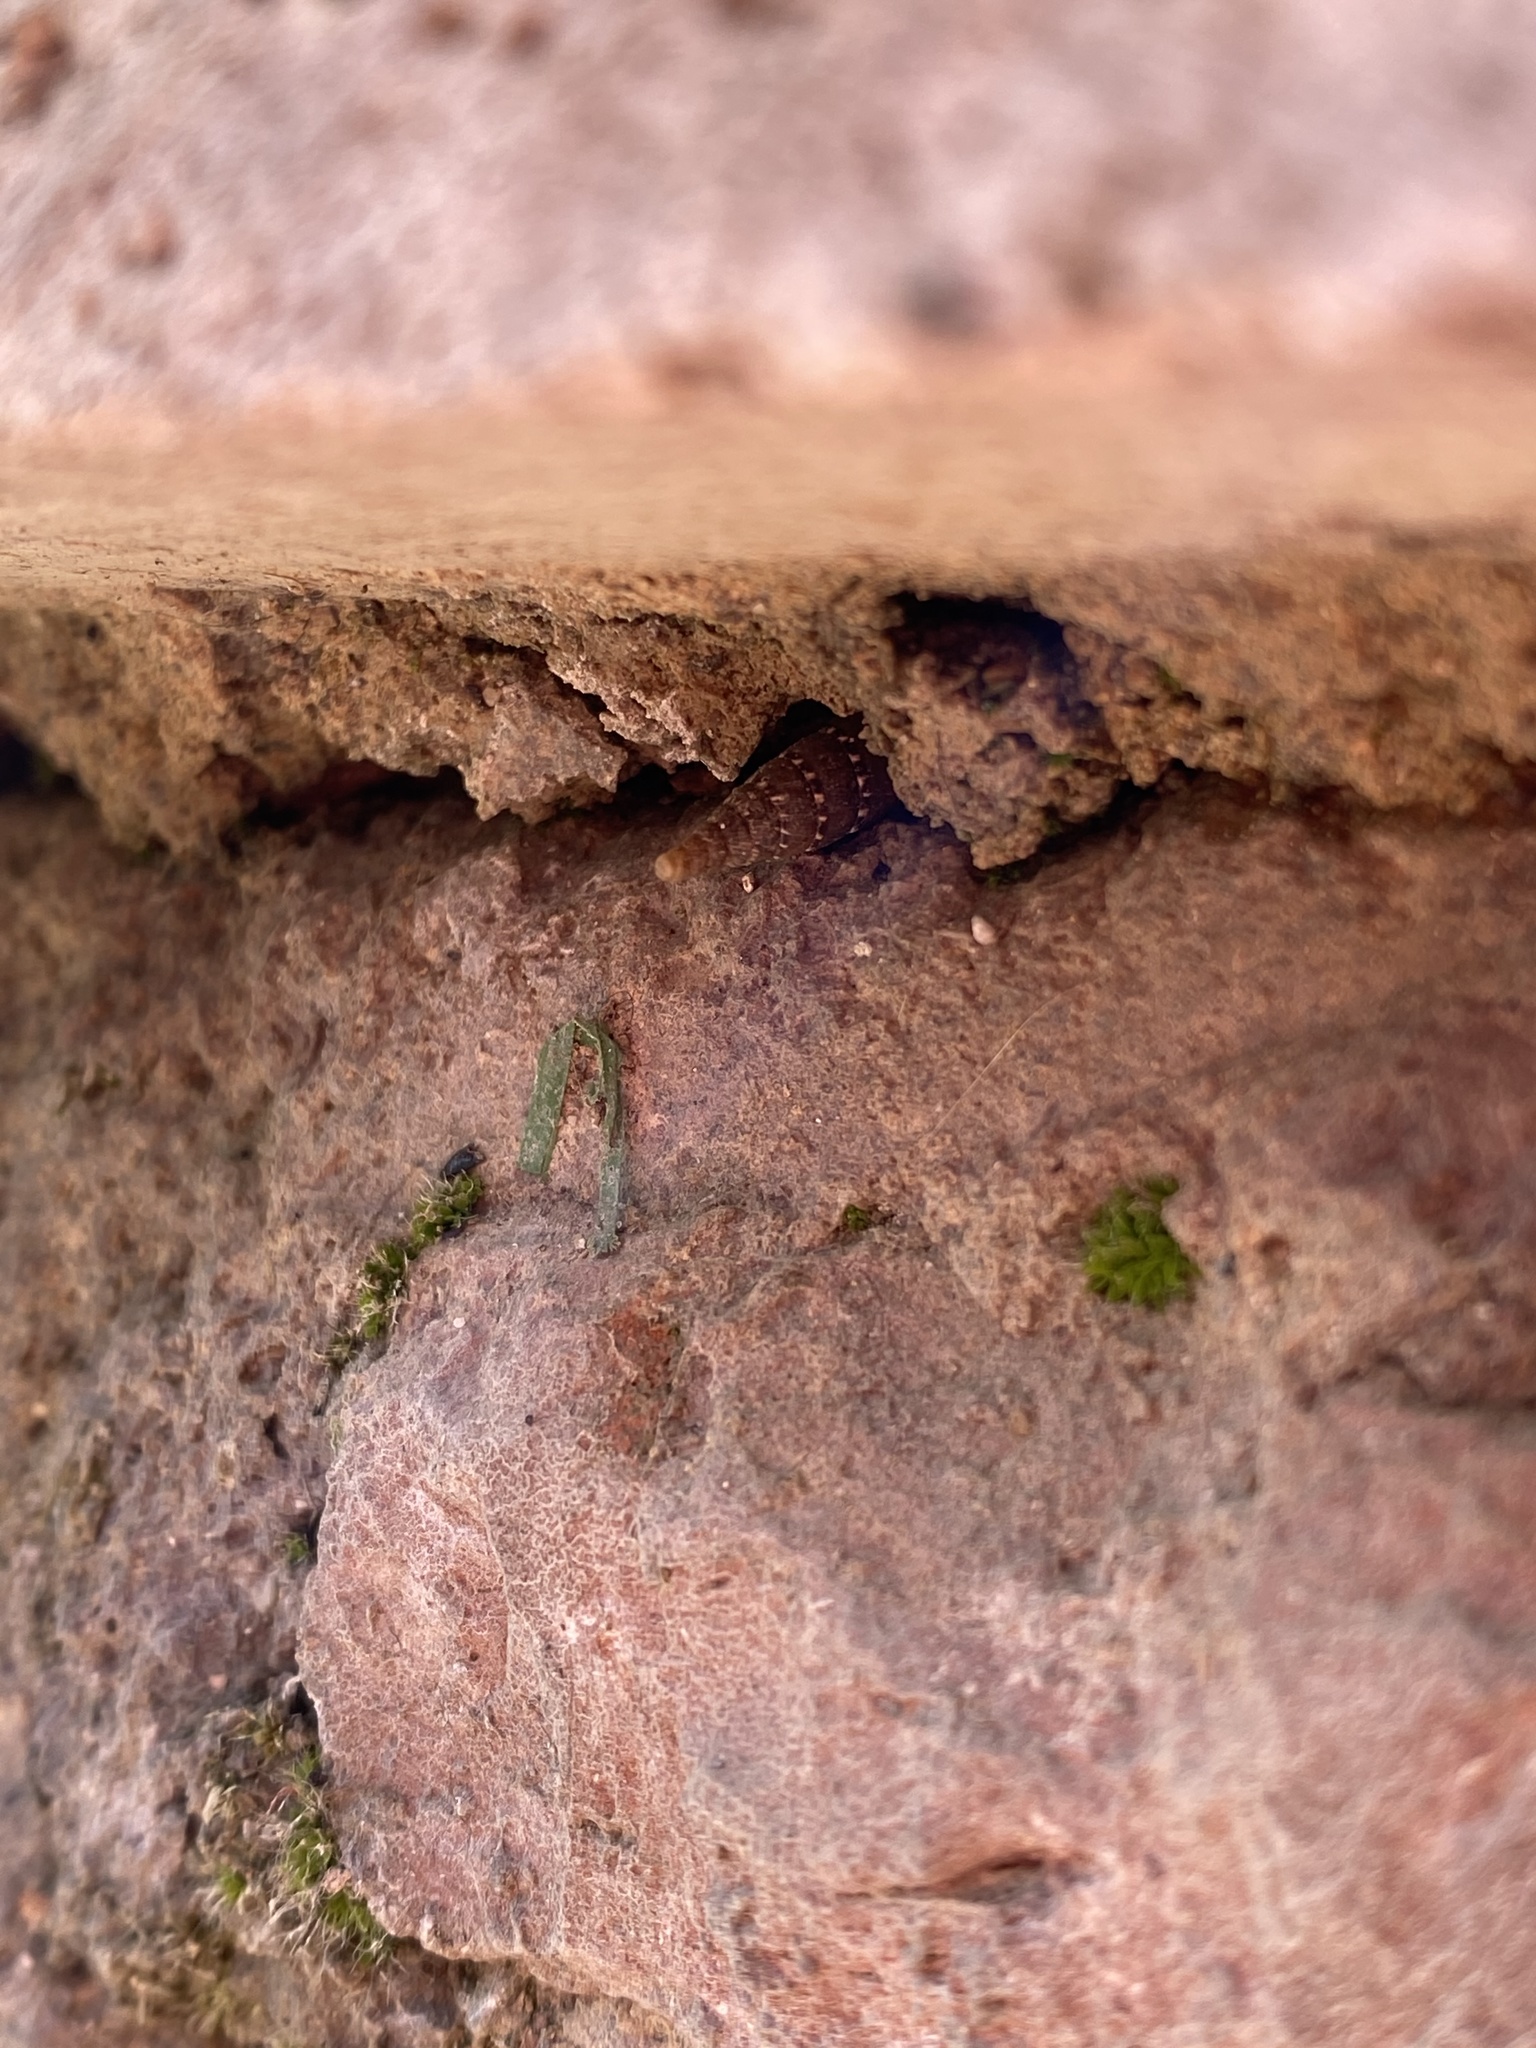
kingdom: Animalia
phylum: Mollusca
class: Gastropoda
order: Stylommatophora
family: Clausiliidae
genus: Papillifera
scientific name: Papillifera papillaris
